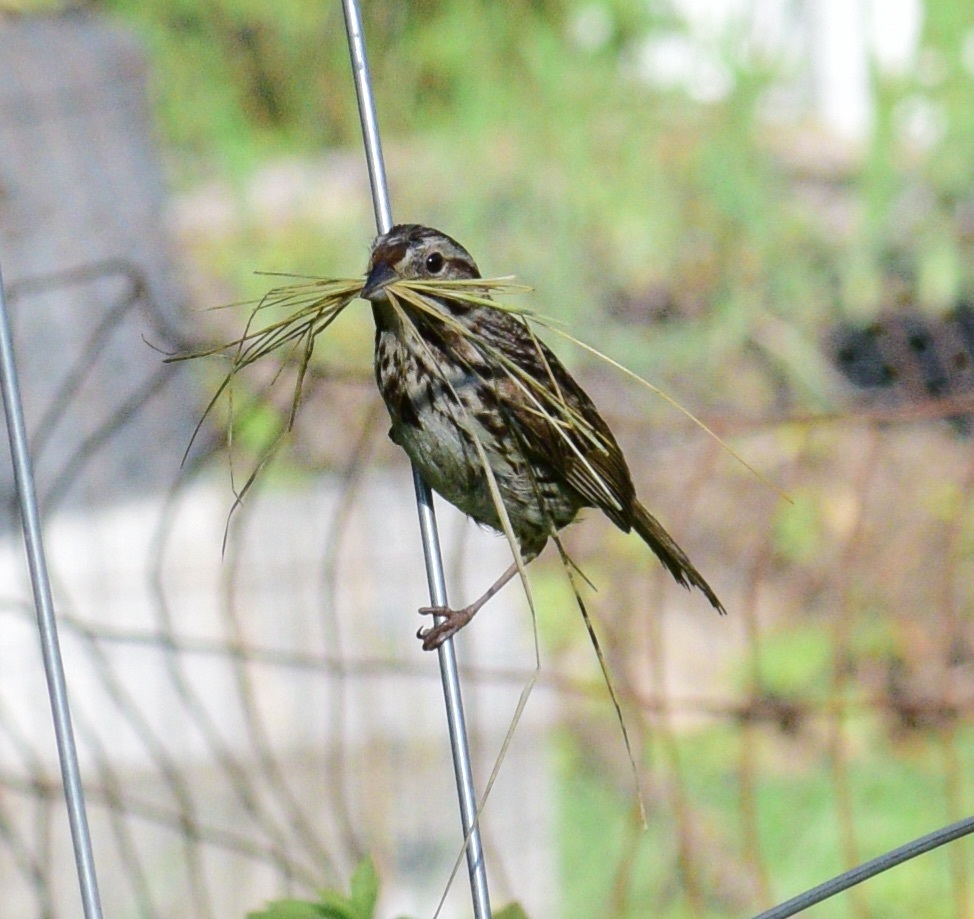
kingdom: Animalia
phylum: Chordata
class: Aves
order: Passeriformes
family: Passerellidae
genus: Melospiza
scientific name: Melospiza melodia
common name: Song sparrow
